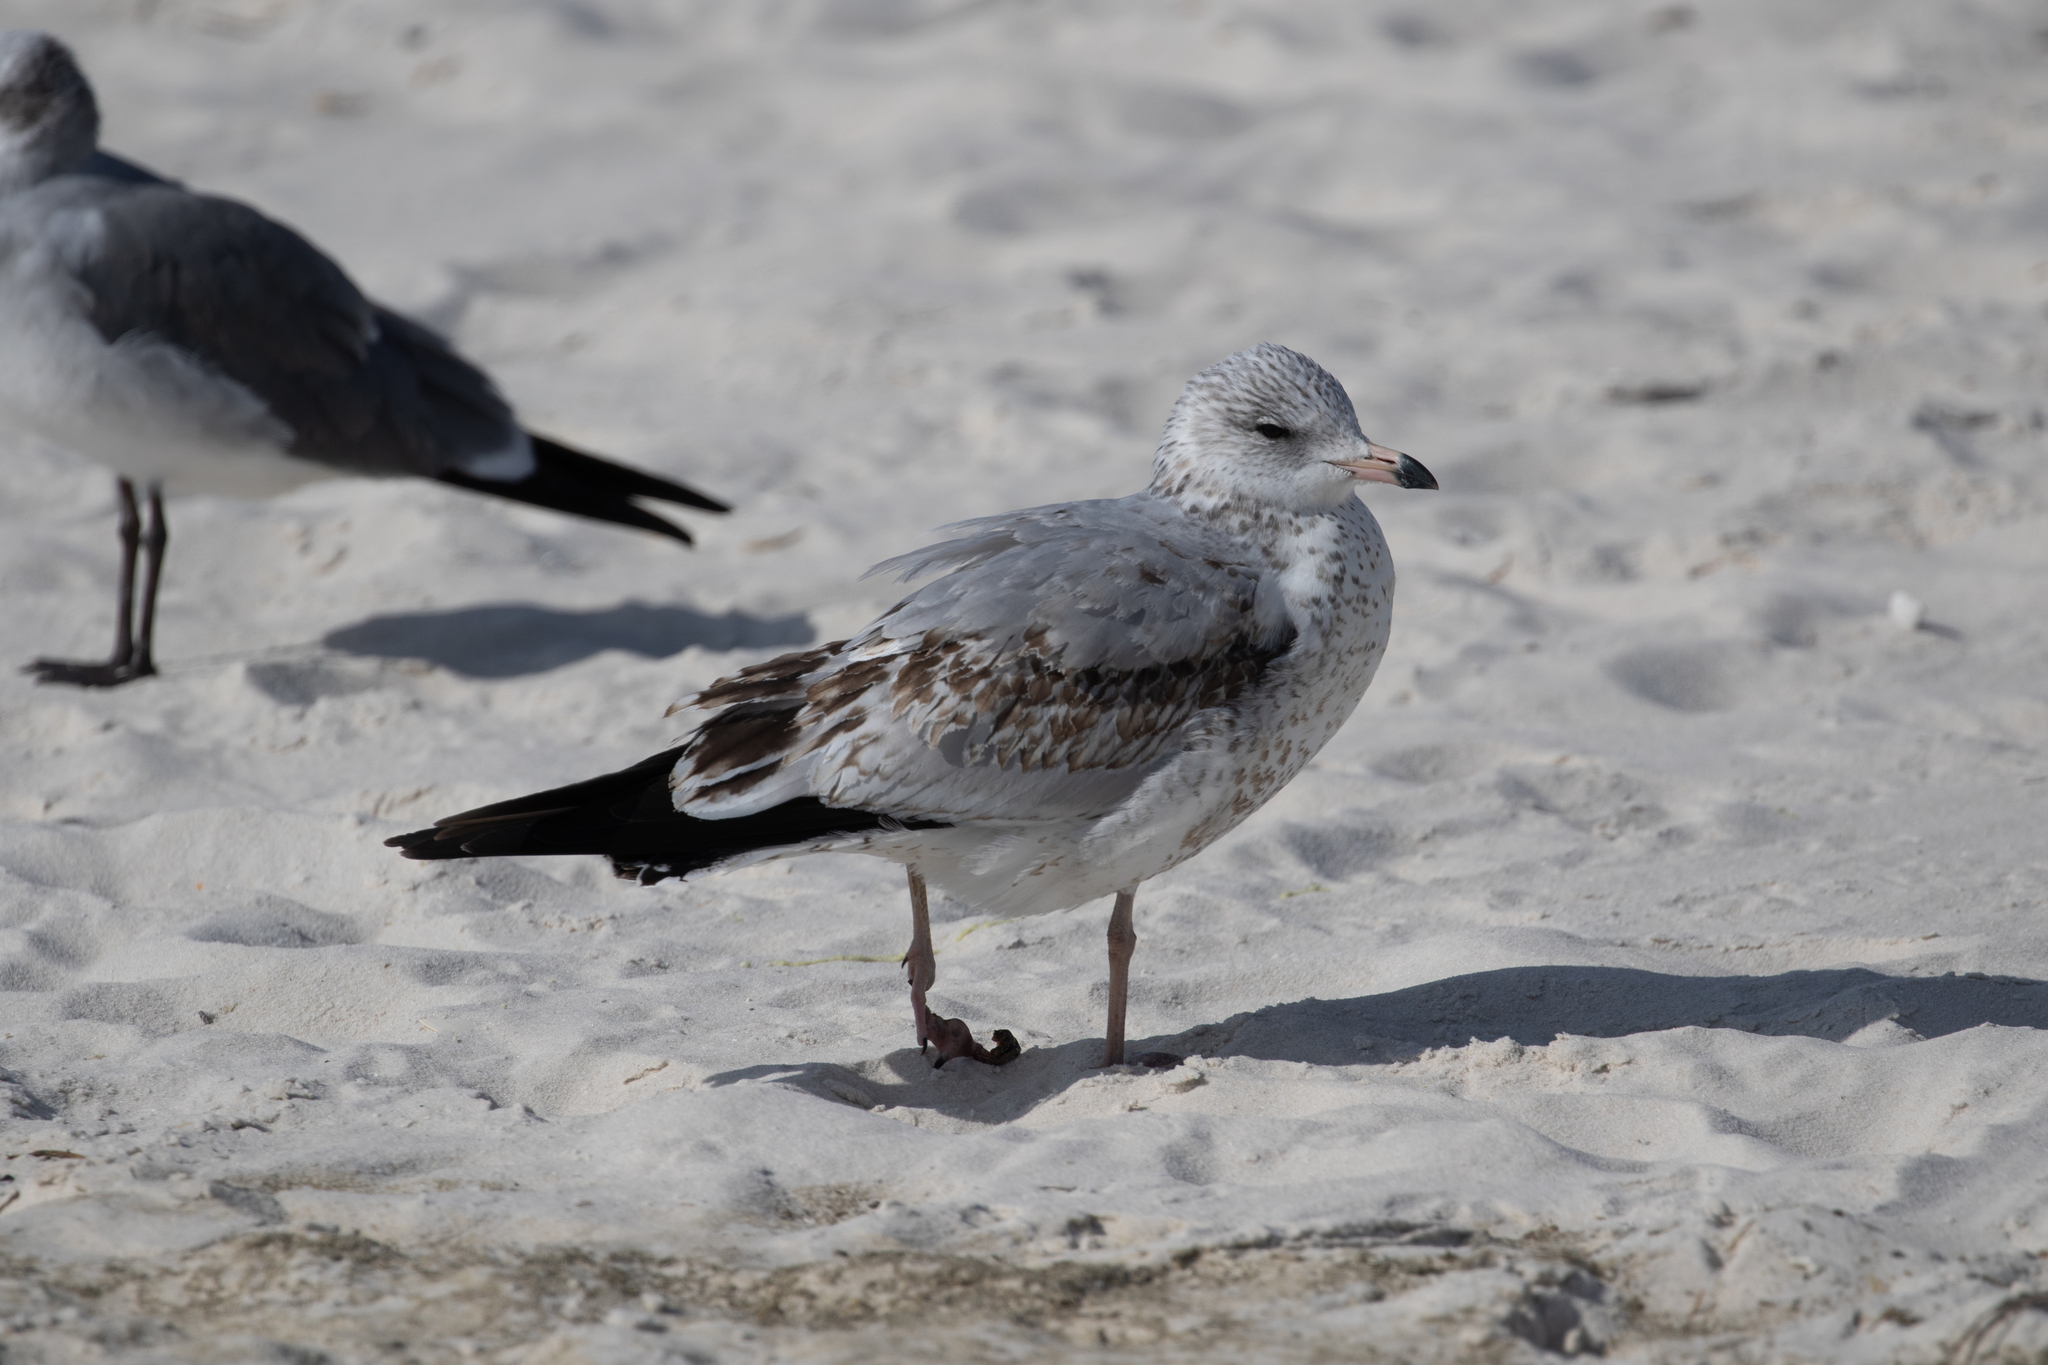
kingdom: Animalia
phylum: Chordata
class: Aves
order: Charadriiformes
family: Laridae
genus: Larus
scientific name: Larus delawarensis
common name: Ring-billed gull
